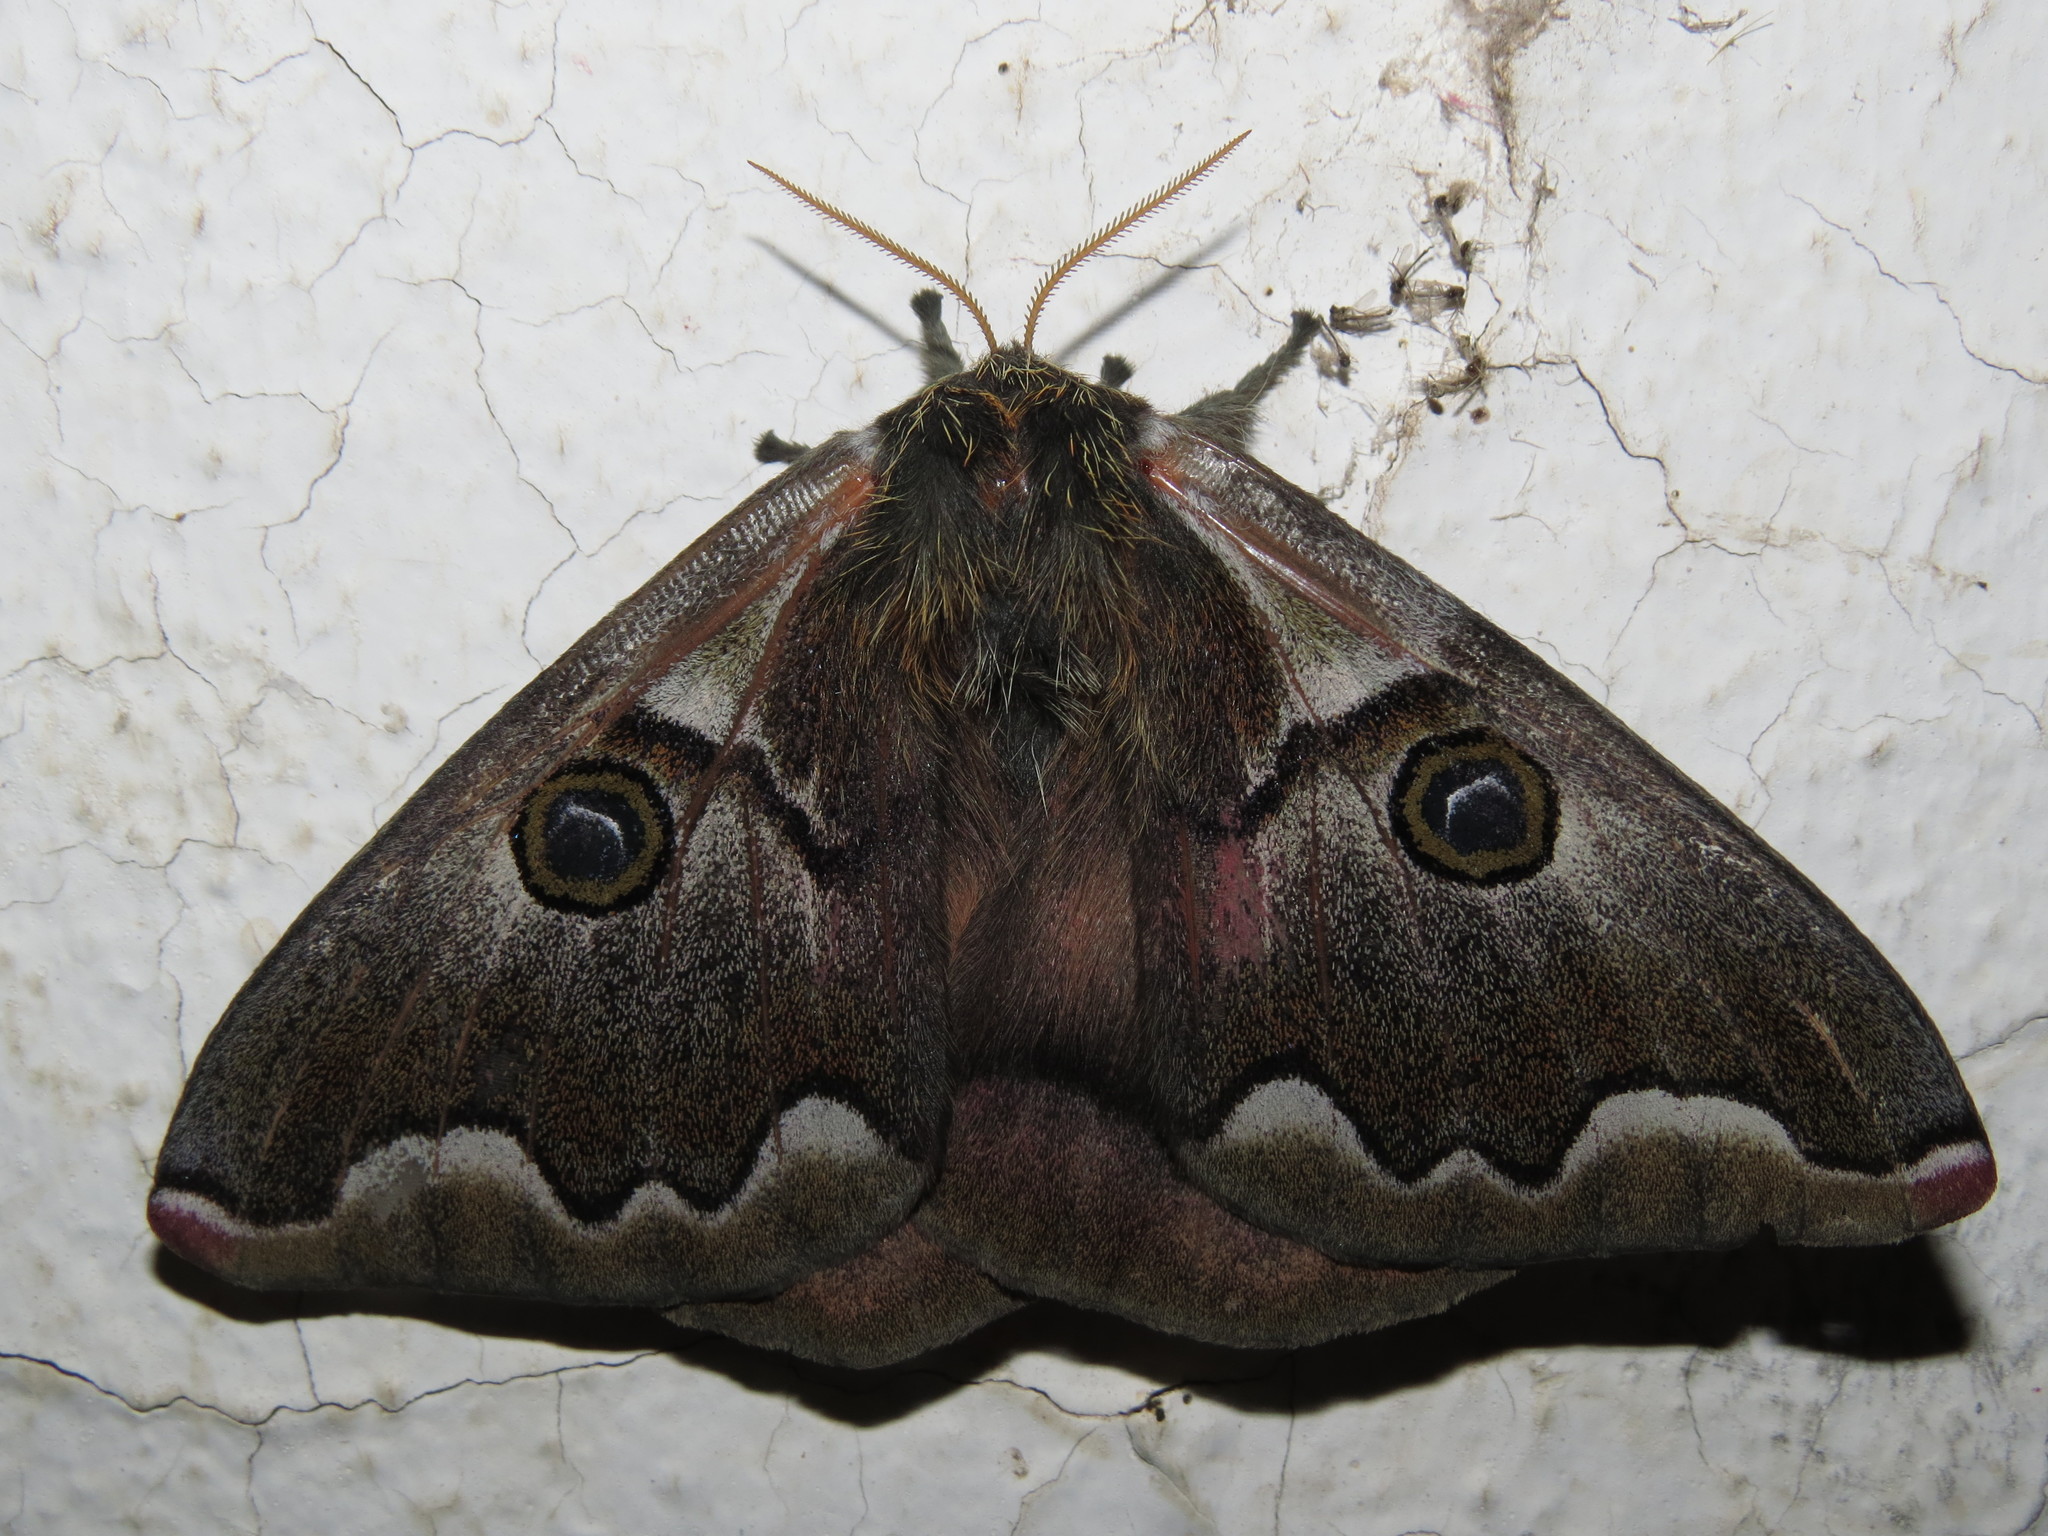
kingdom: Animalia
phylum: Arthropoda
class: Insecta
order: Lepidoptera
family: Saturniidae
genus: Polythysana
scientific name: Polythysana cinerascens
